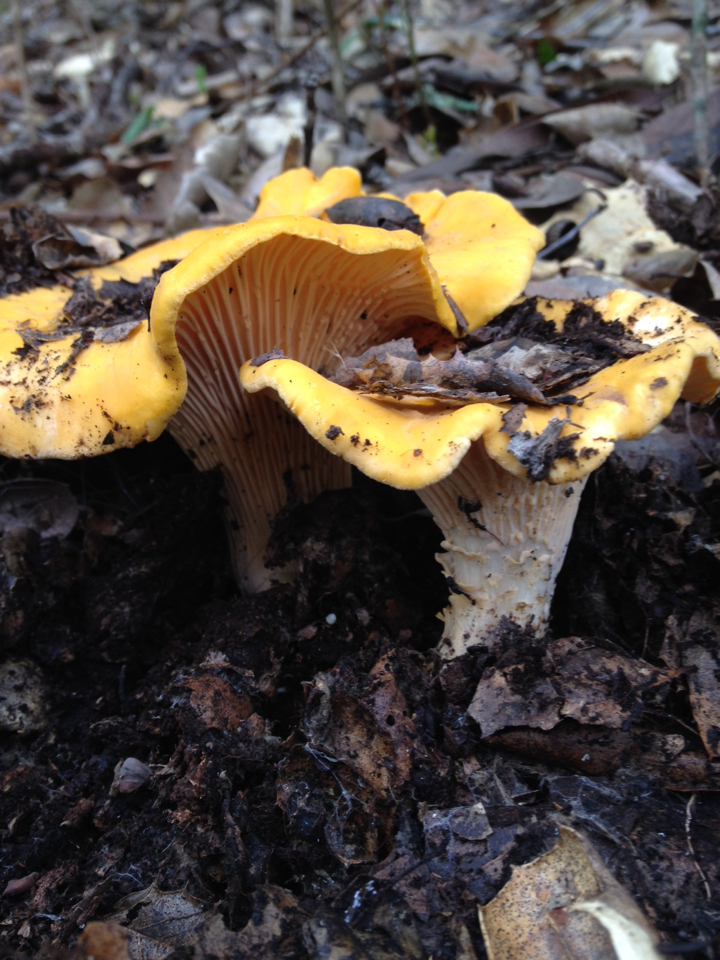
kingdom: Fungi
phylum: Basidiomycota
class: Agaricomycetes
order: Cantharellales
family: Hydnaceae
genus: Cantharellus
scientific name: Cantharellus californicus
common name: California golden chanterelle
